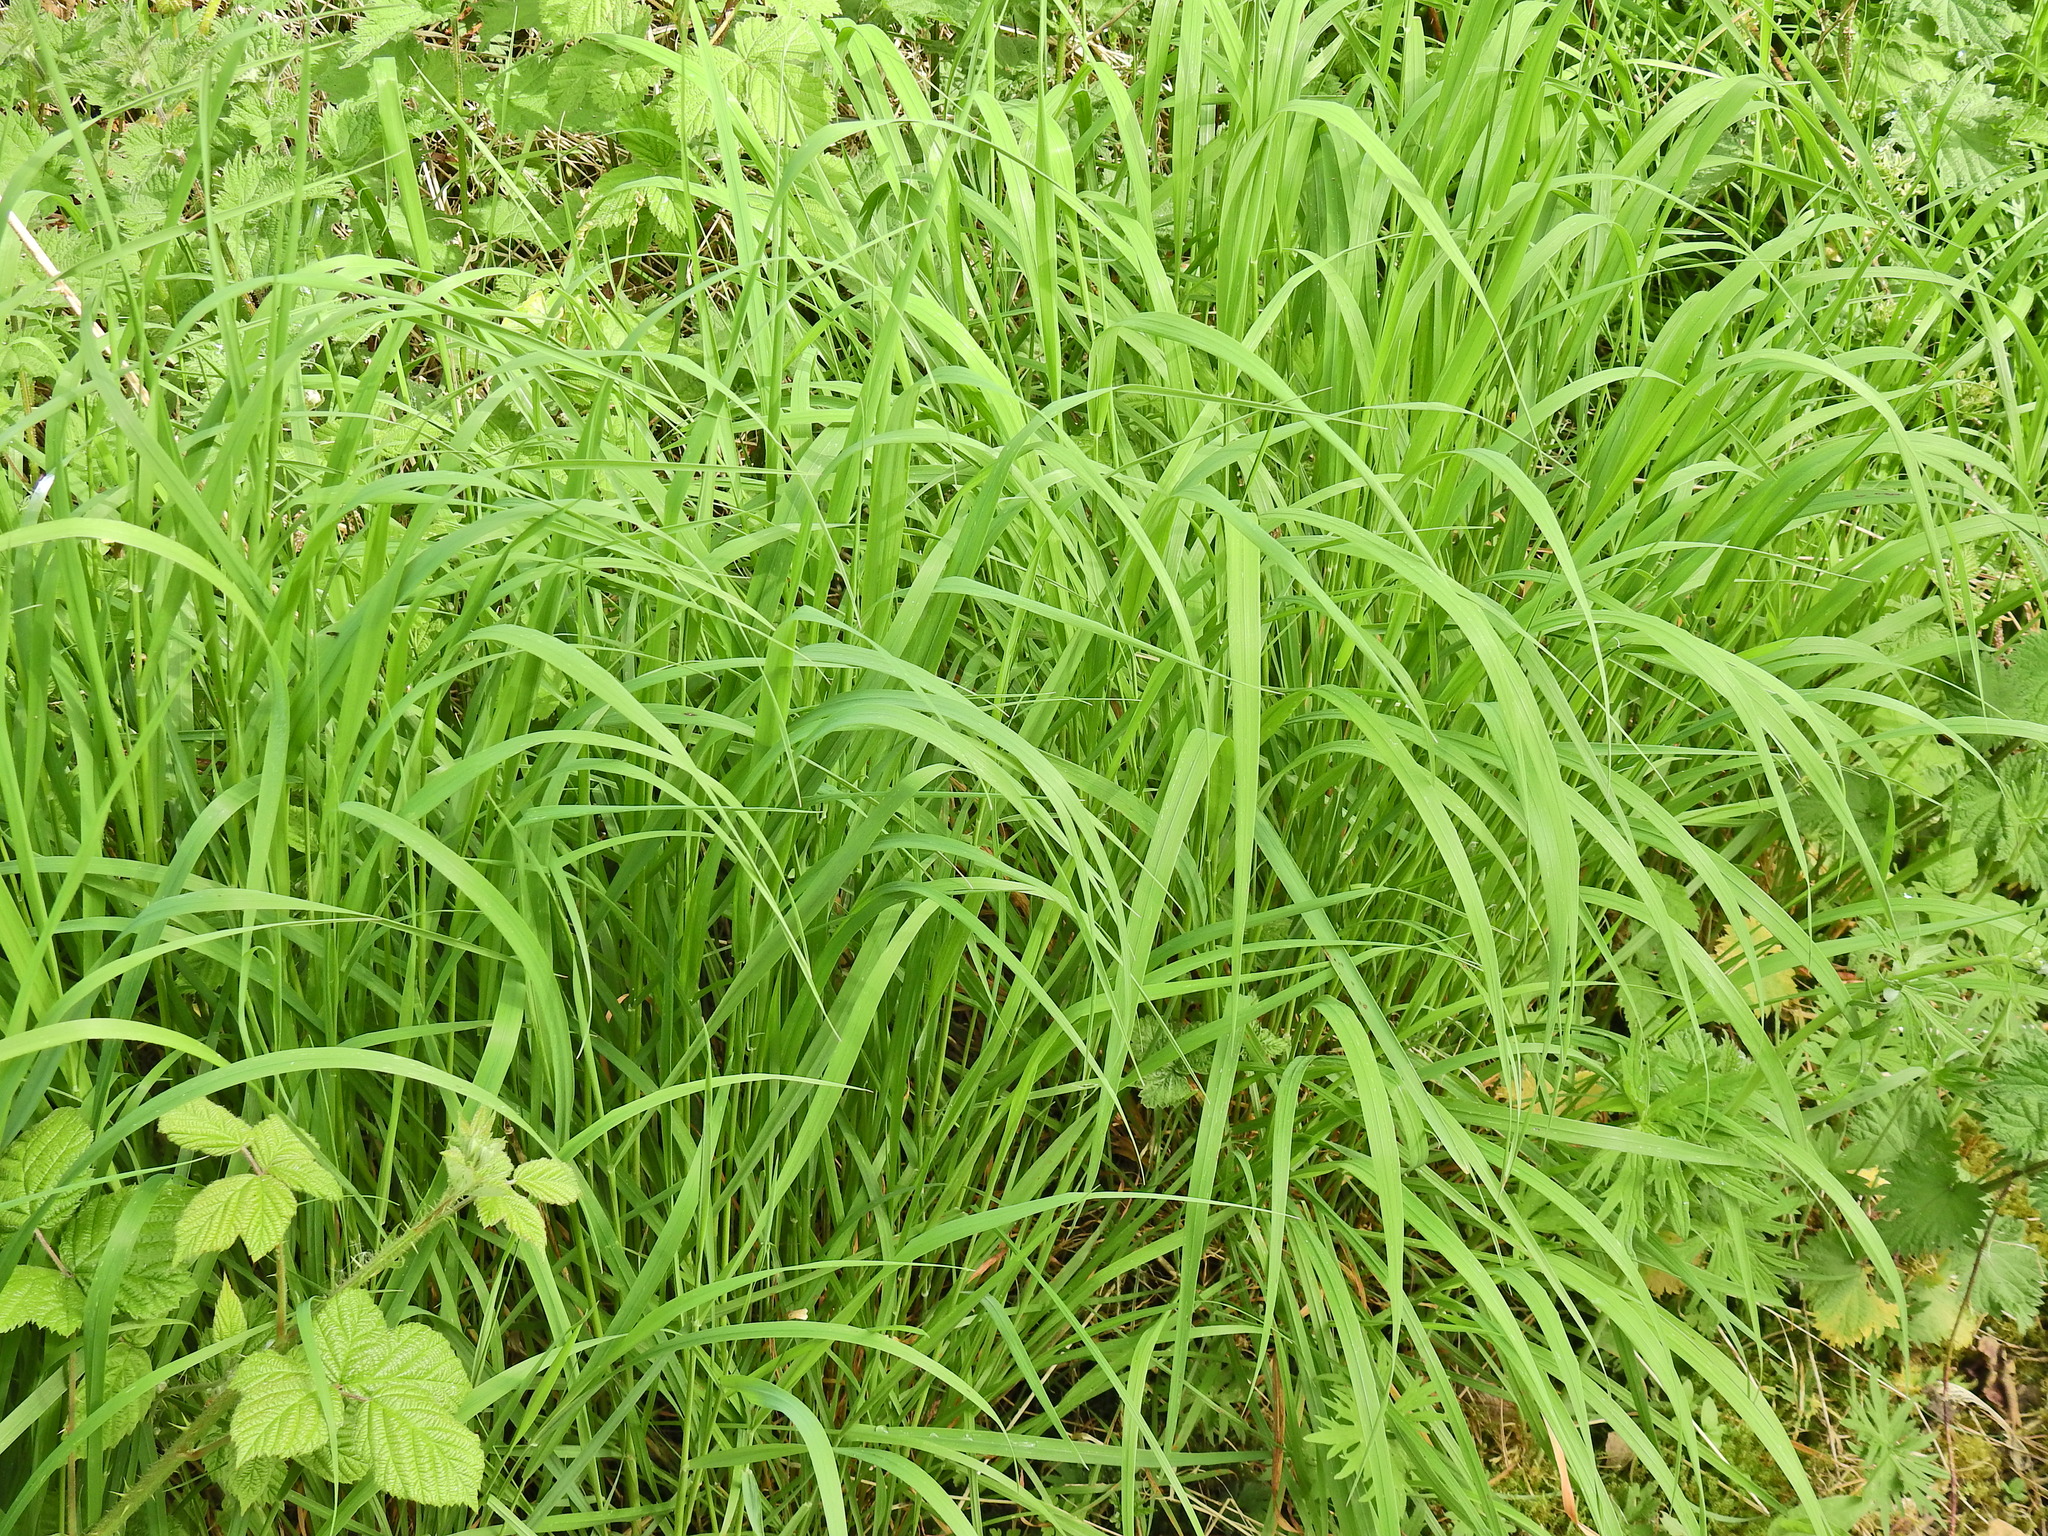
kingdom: Plantae
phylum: Tracheophyta
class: Liliopsida
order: Poales
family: Poaceae
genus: Brachypodium
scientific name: Brachypodium sylvaticum
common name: False-brome
